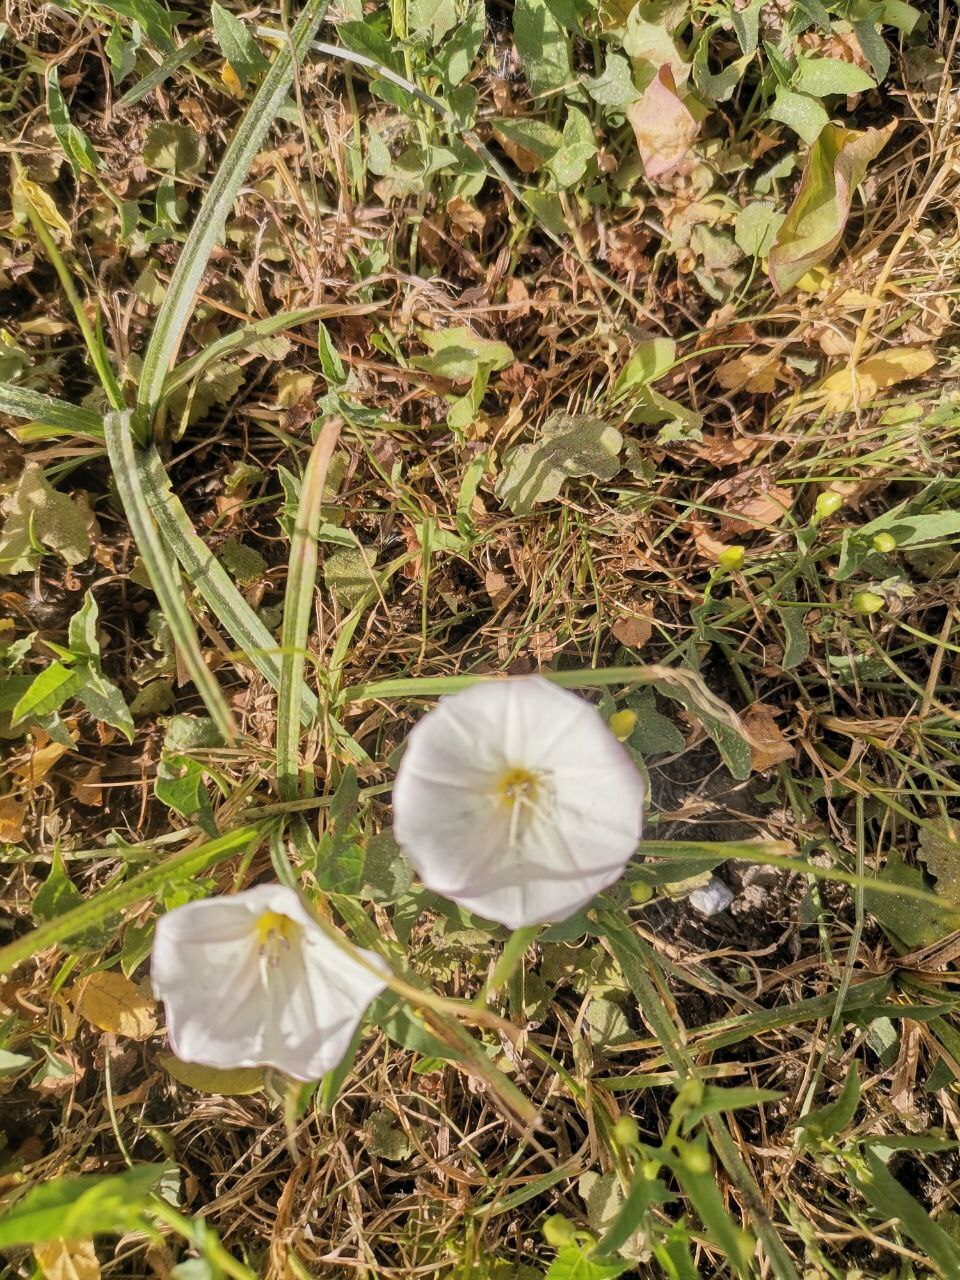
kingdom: Plantae
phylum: Tracheophyta
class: Magnoliopsida
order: Solanales
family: Convolvulaceae
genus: Convolvulus
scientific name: Convolvulus arvensis
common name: Field bindweed
